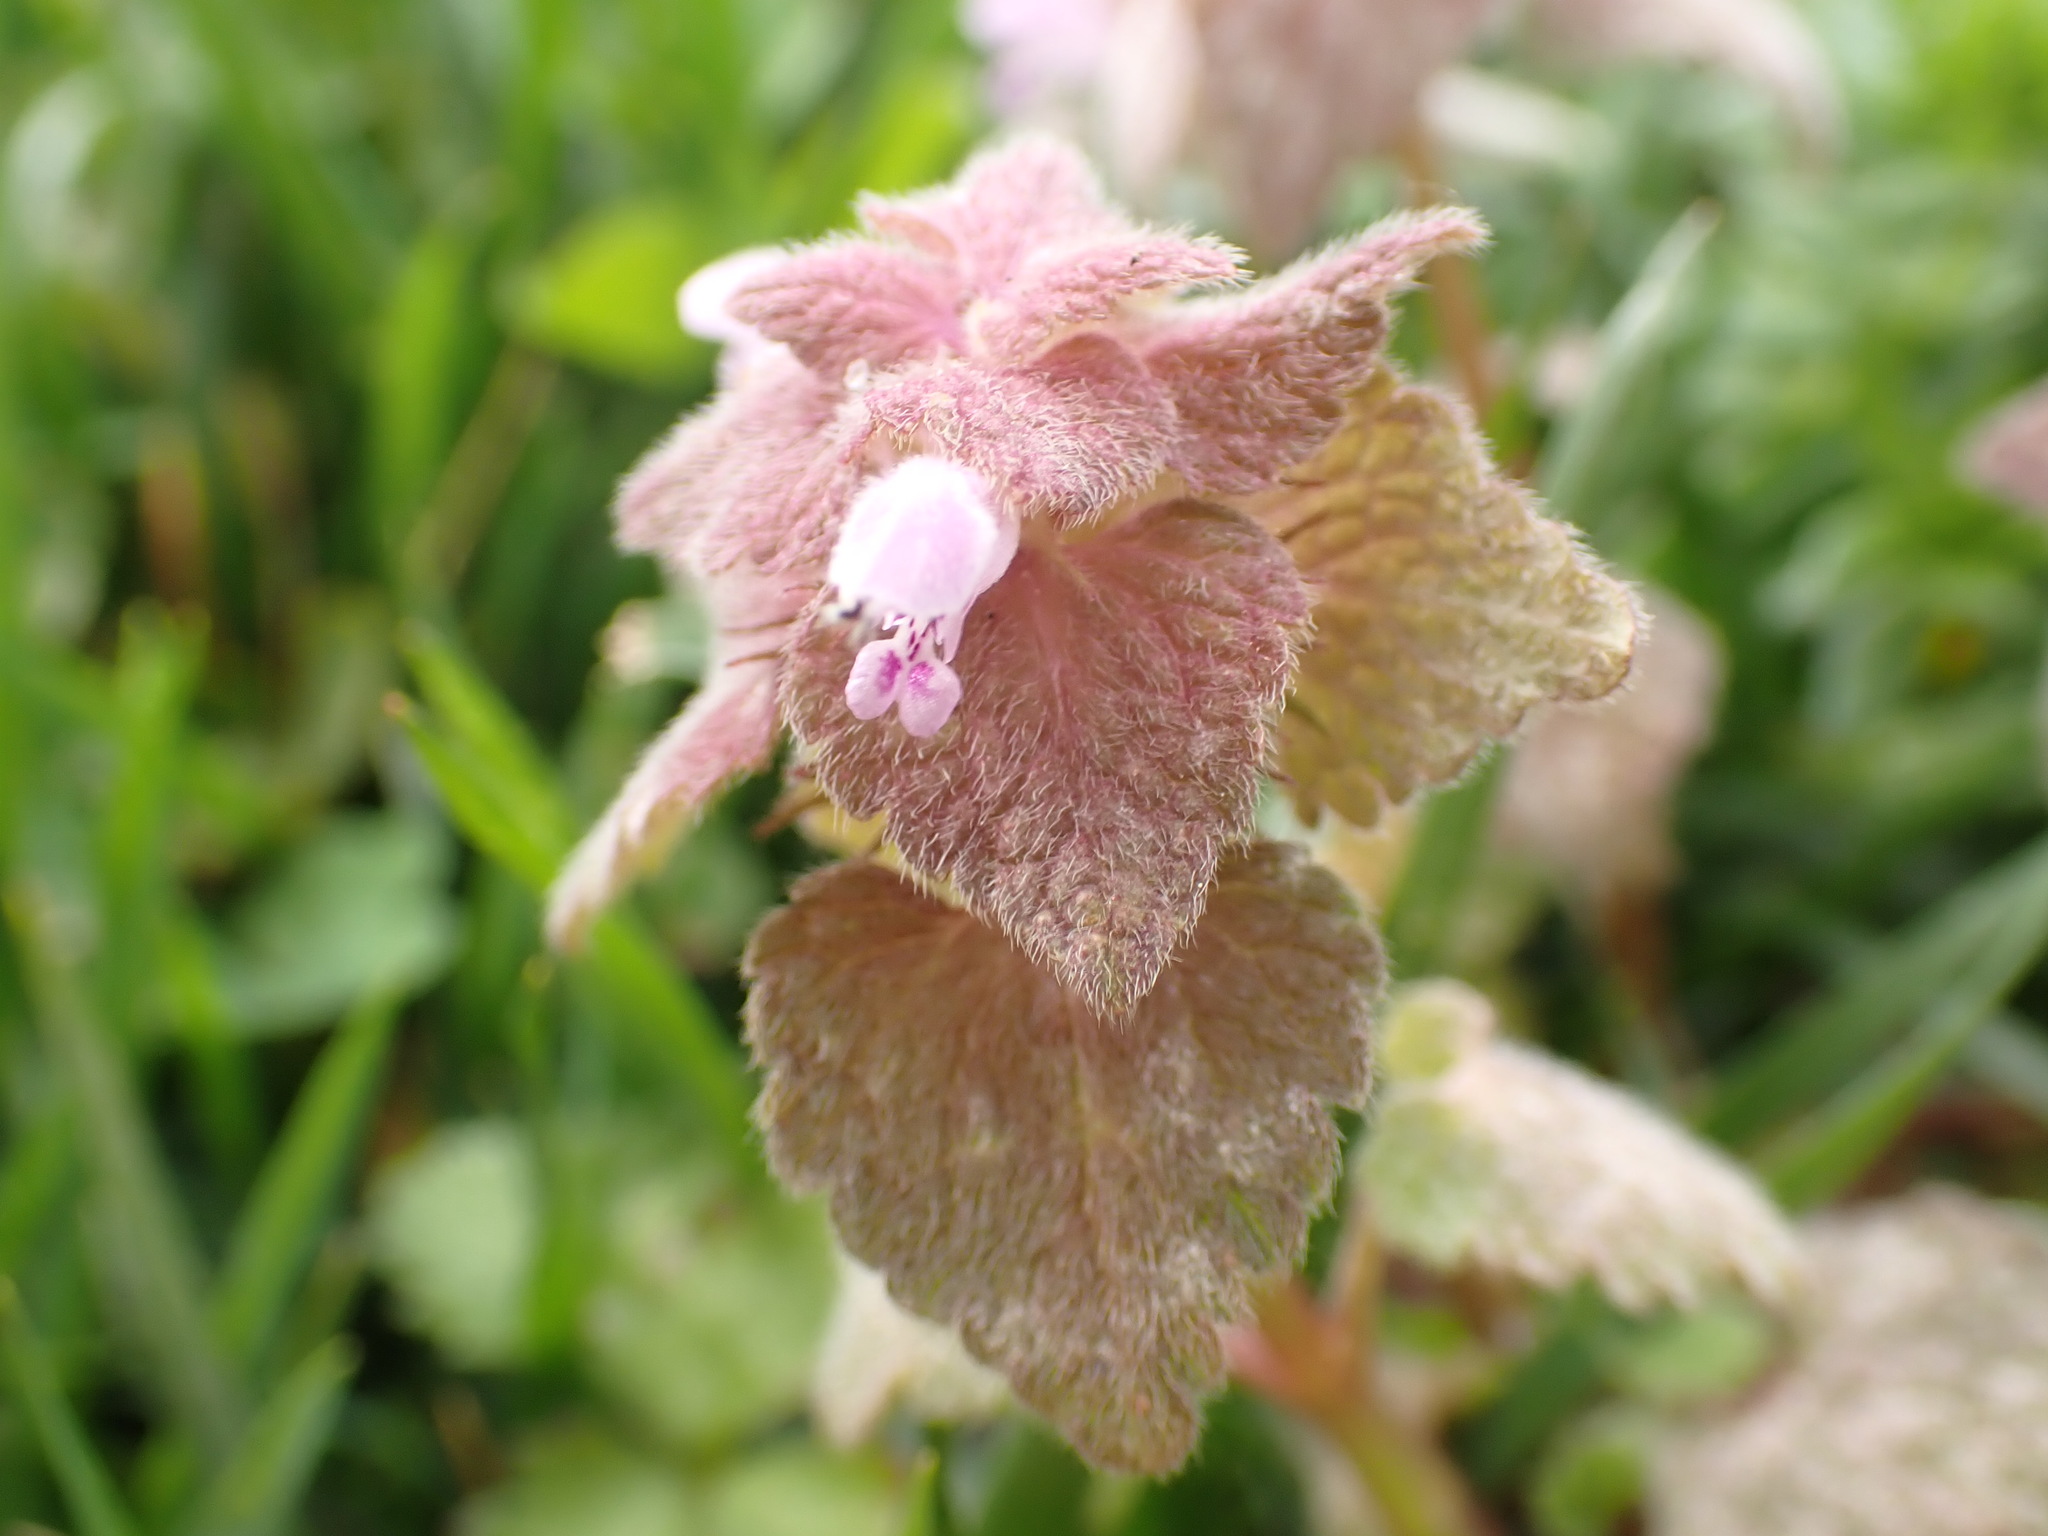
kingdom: Plantae
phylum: Tracheophyta
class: Magnoliopsida
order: Lamiales
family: Lamiaceae
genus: Lamium
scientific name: Lamium purpureum
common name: Red dead-nettle
